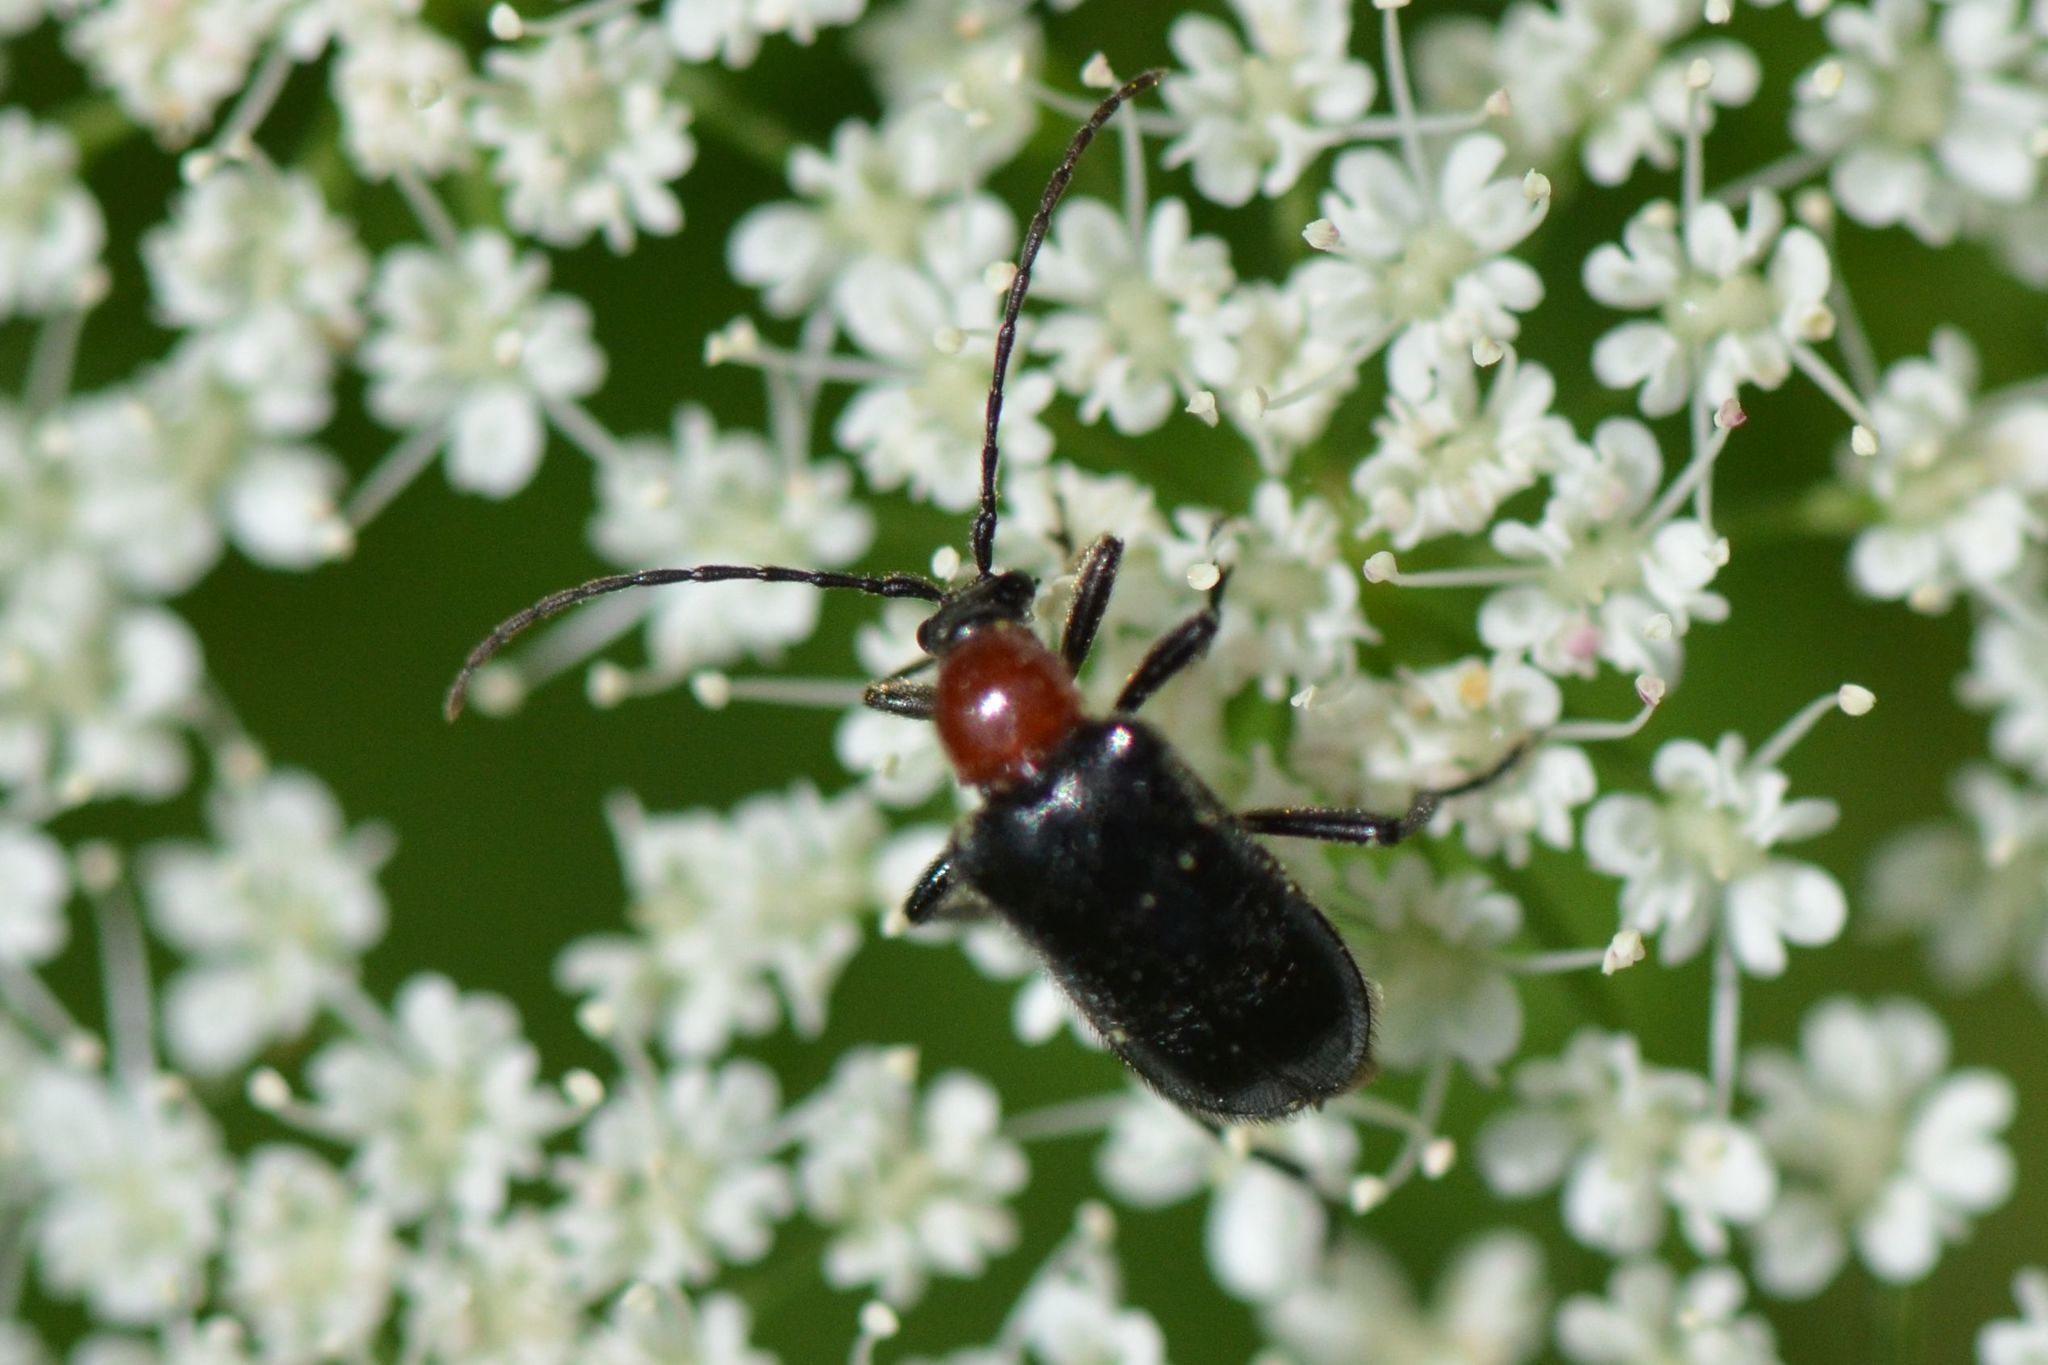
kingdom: Animalia
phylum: Arthropoda
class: Insecta
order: Coleoptera
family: Cerambycidae
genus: Dinoptera
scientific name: Dinoptera collaris
